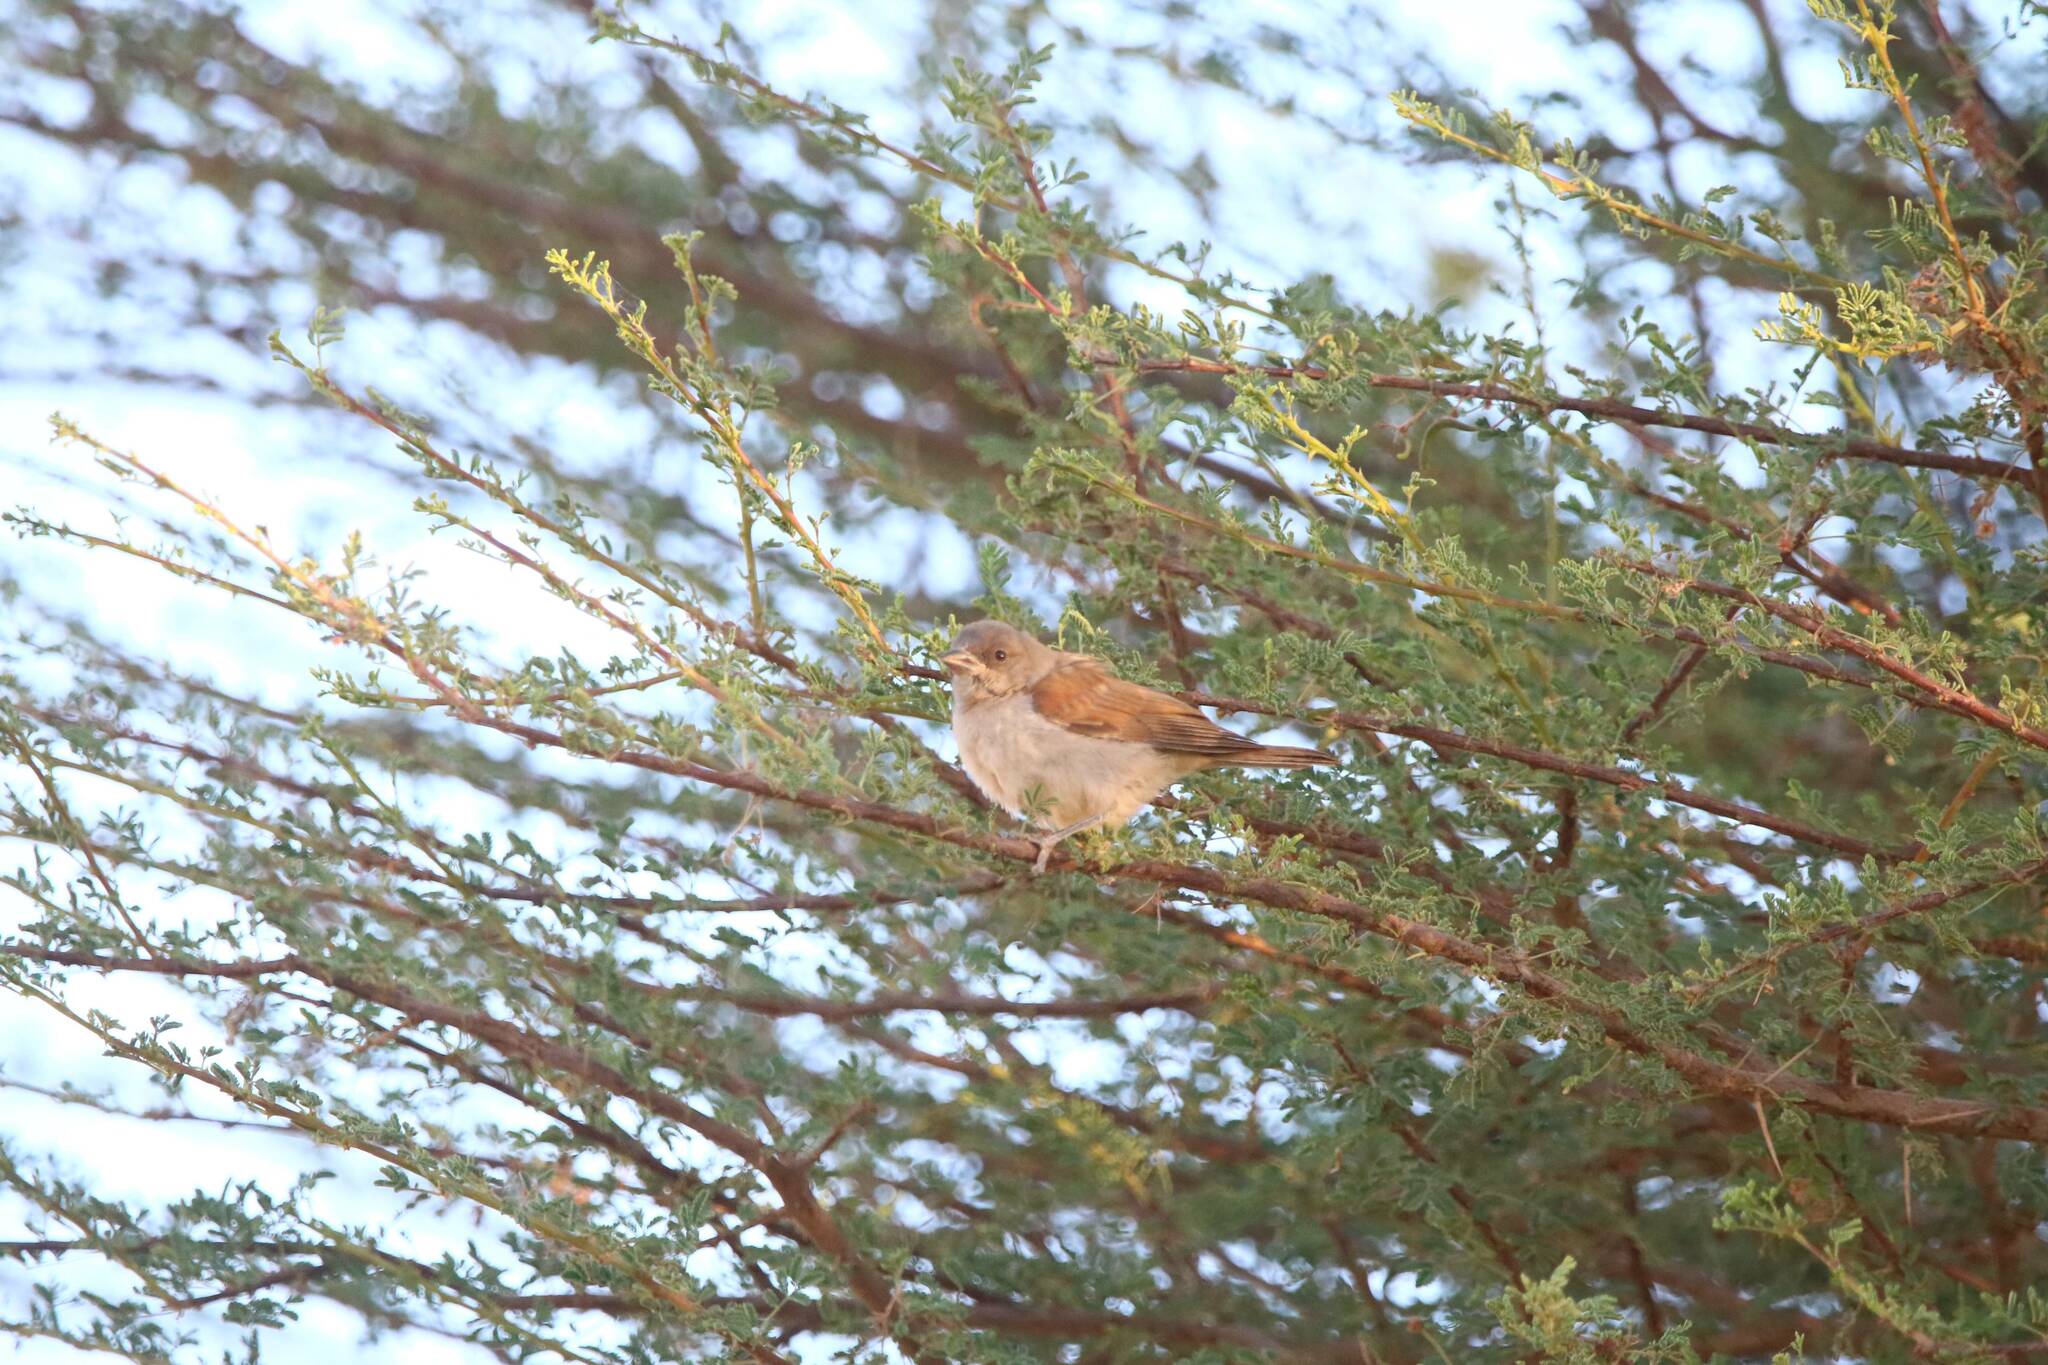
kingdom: Animalia
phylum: Chordata
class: Aves
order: Passeriformes
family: Passeridae
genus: Passer
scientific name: Passer griseus
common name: Northern grey-headed sparrow
